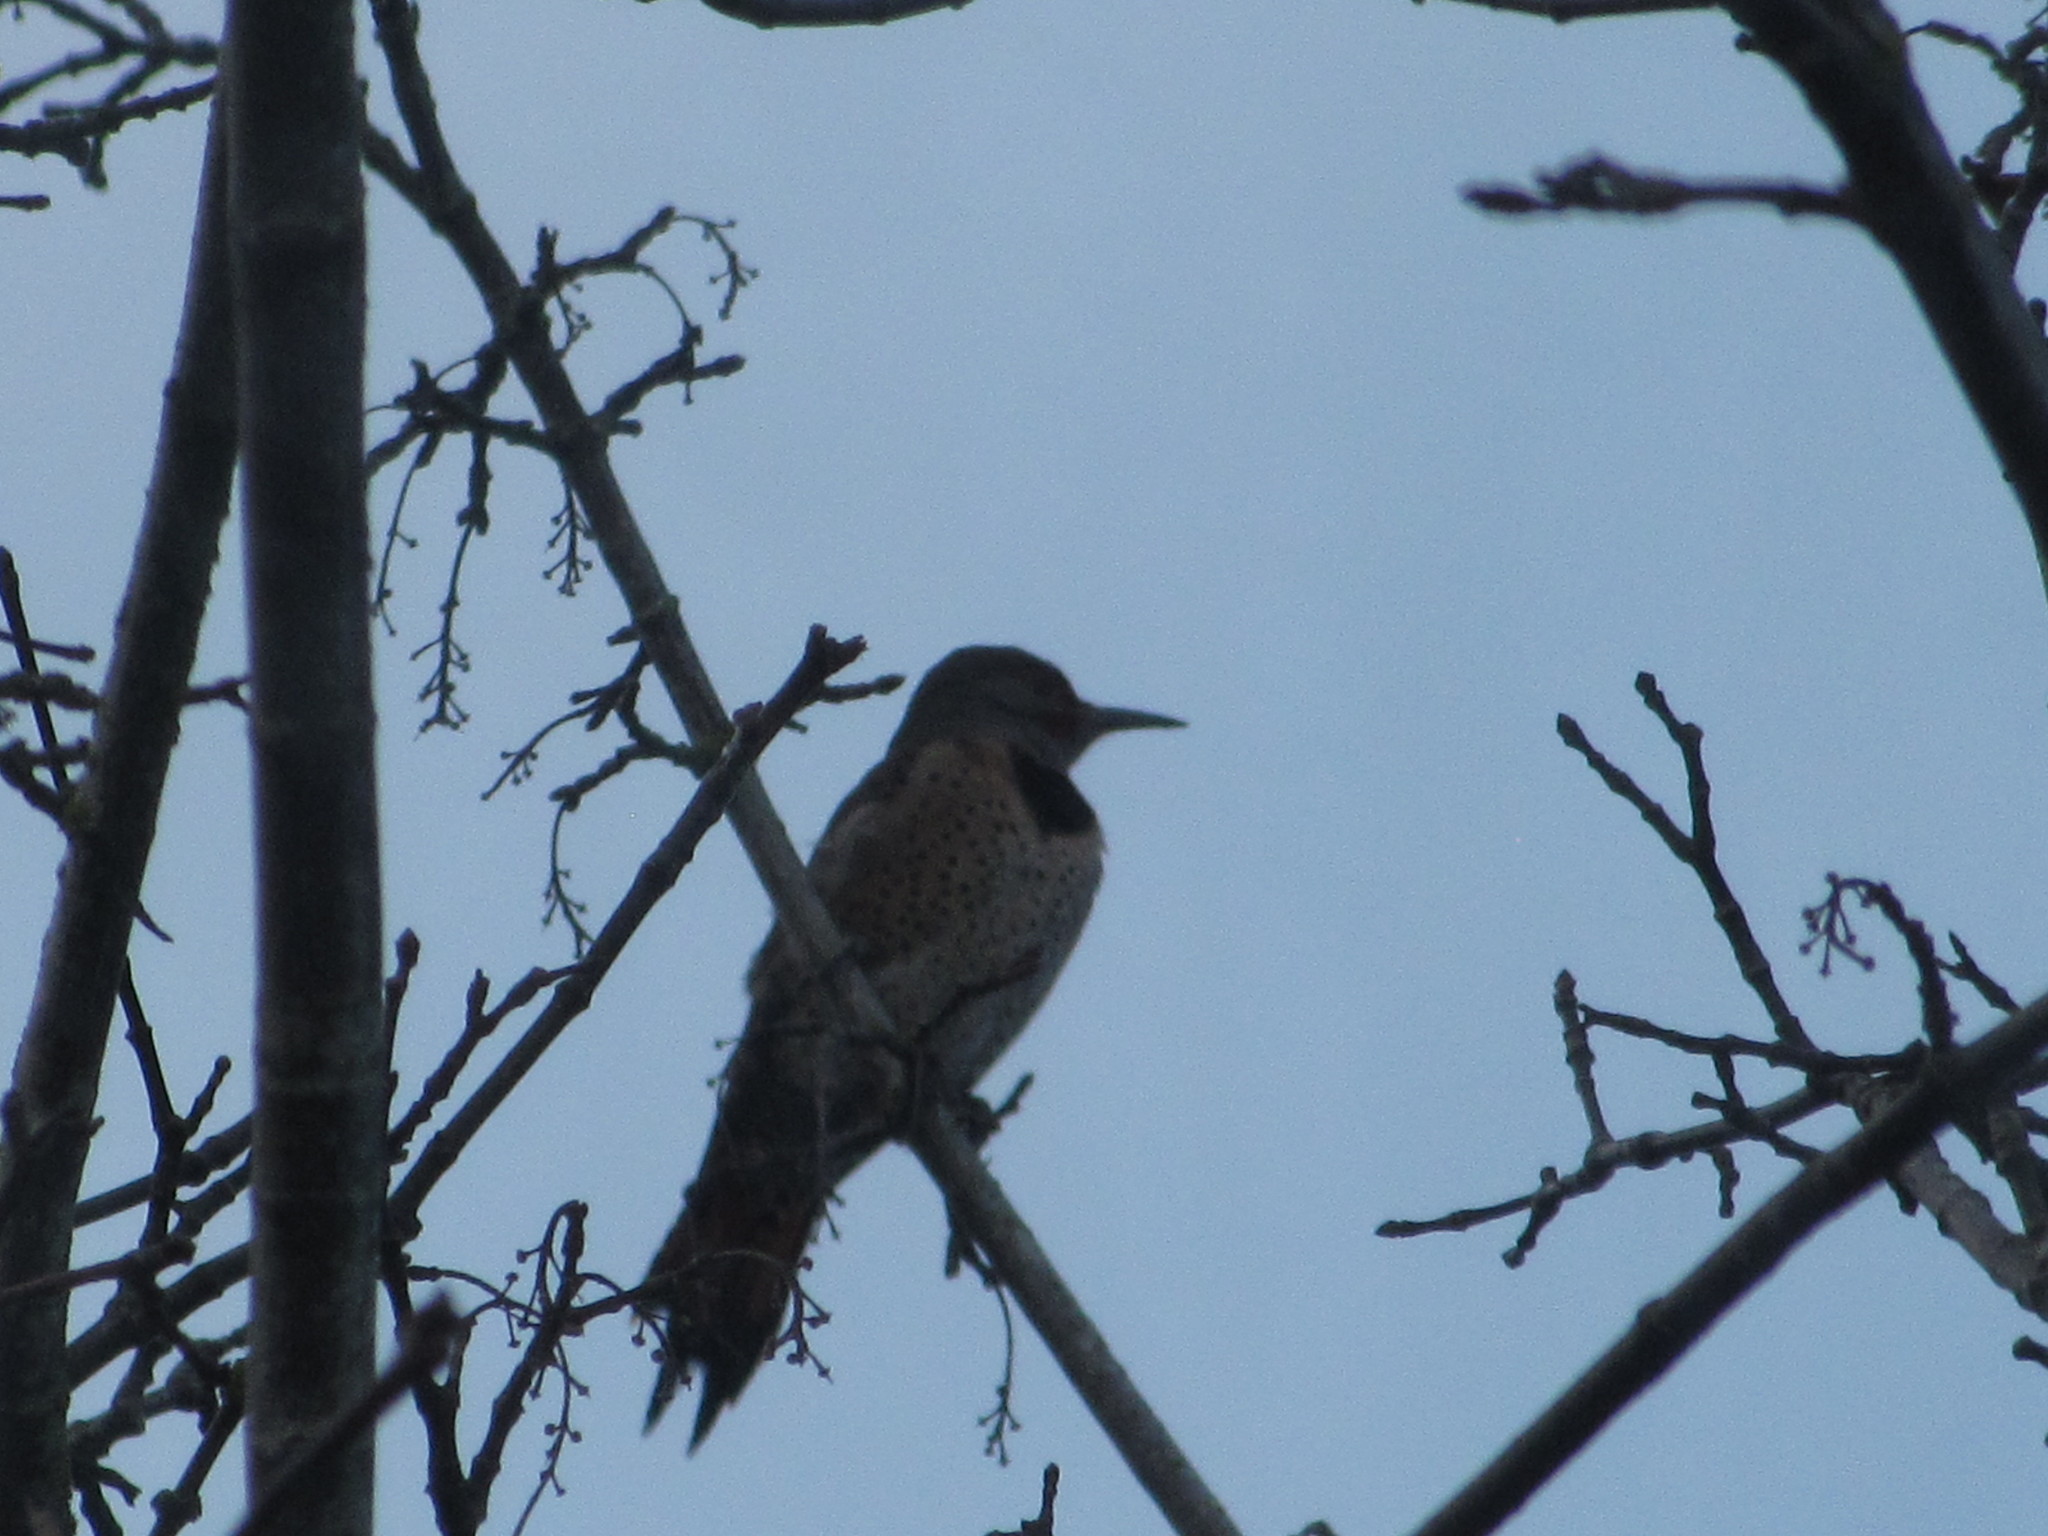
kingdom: Animalia
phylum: Chordata
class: Aves
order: Piciformes
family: Picidae
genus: Colaptes
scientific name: Colaptes auratus
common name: Northern flicker
